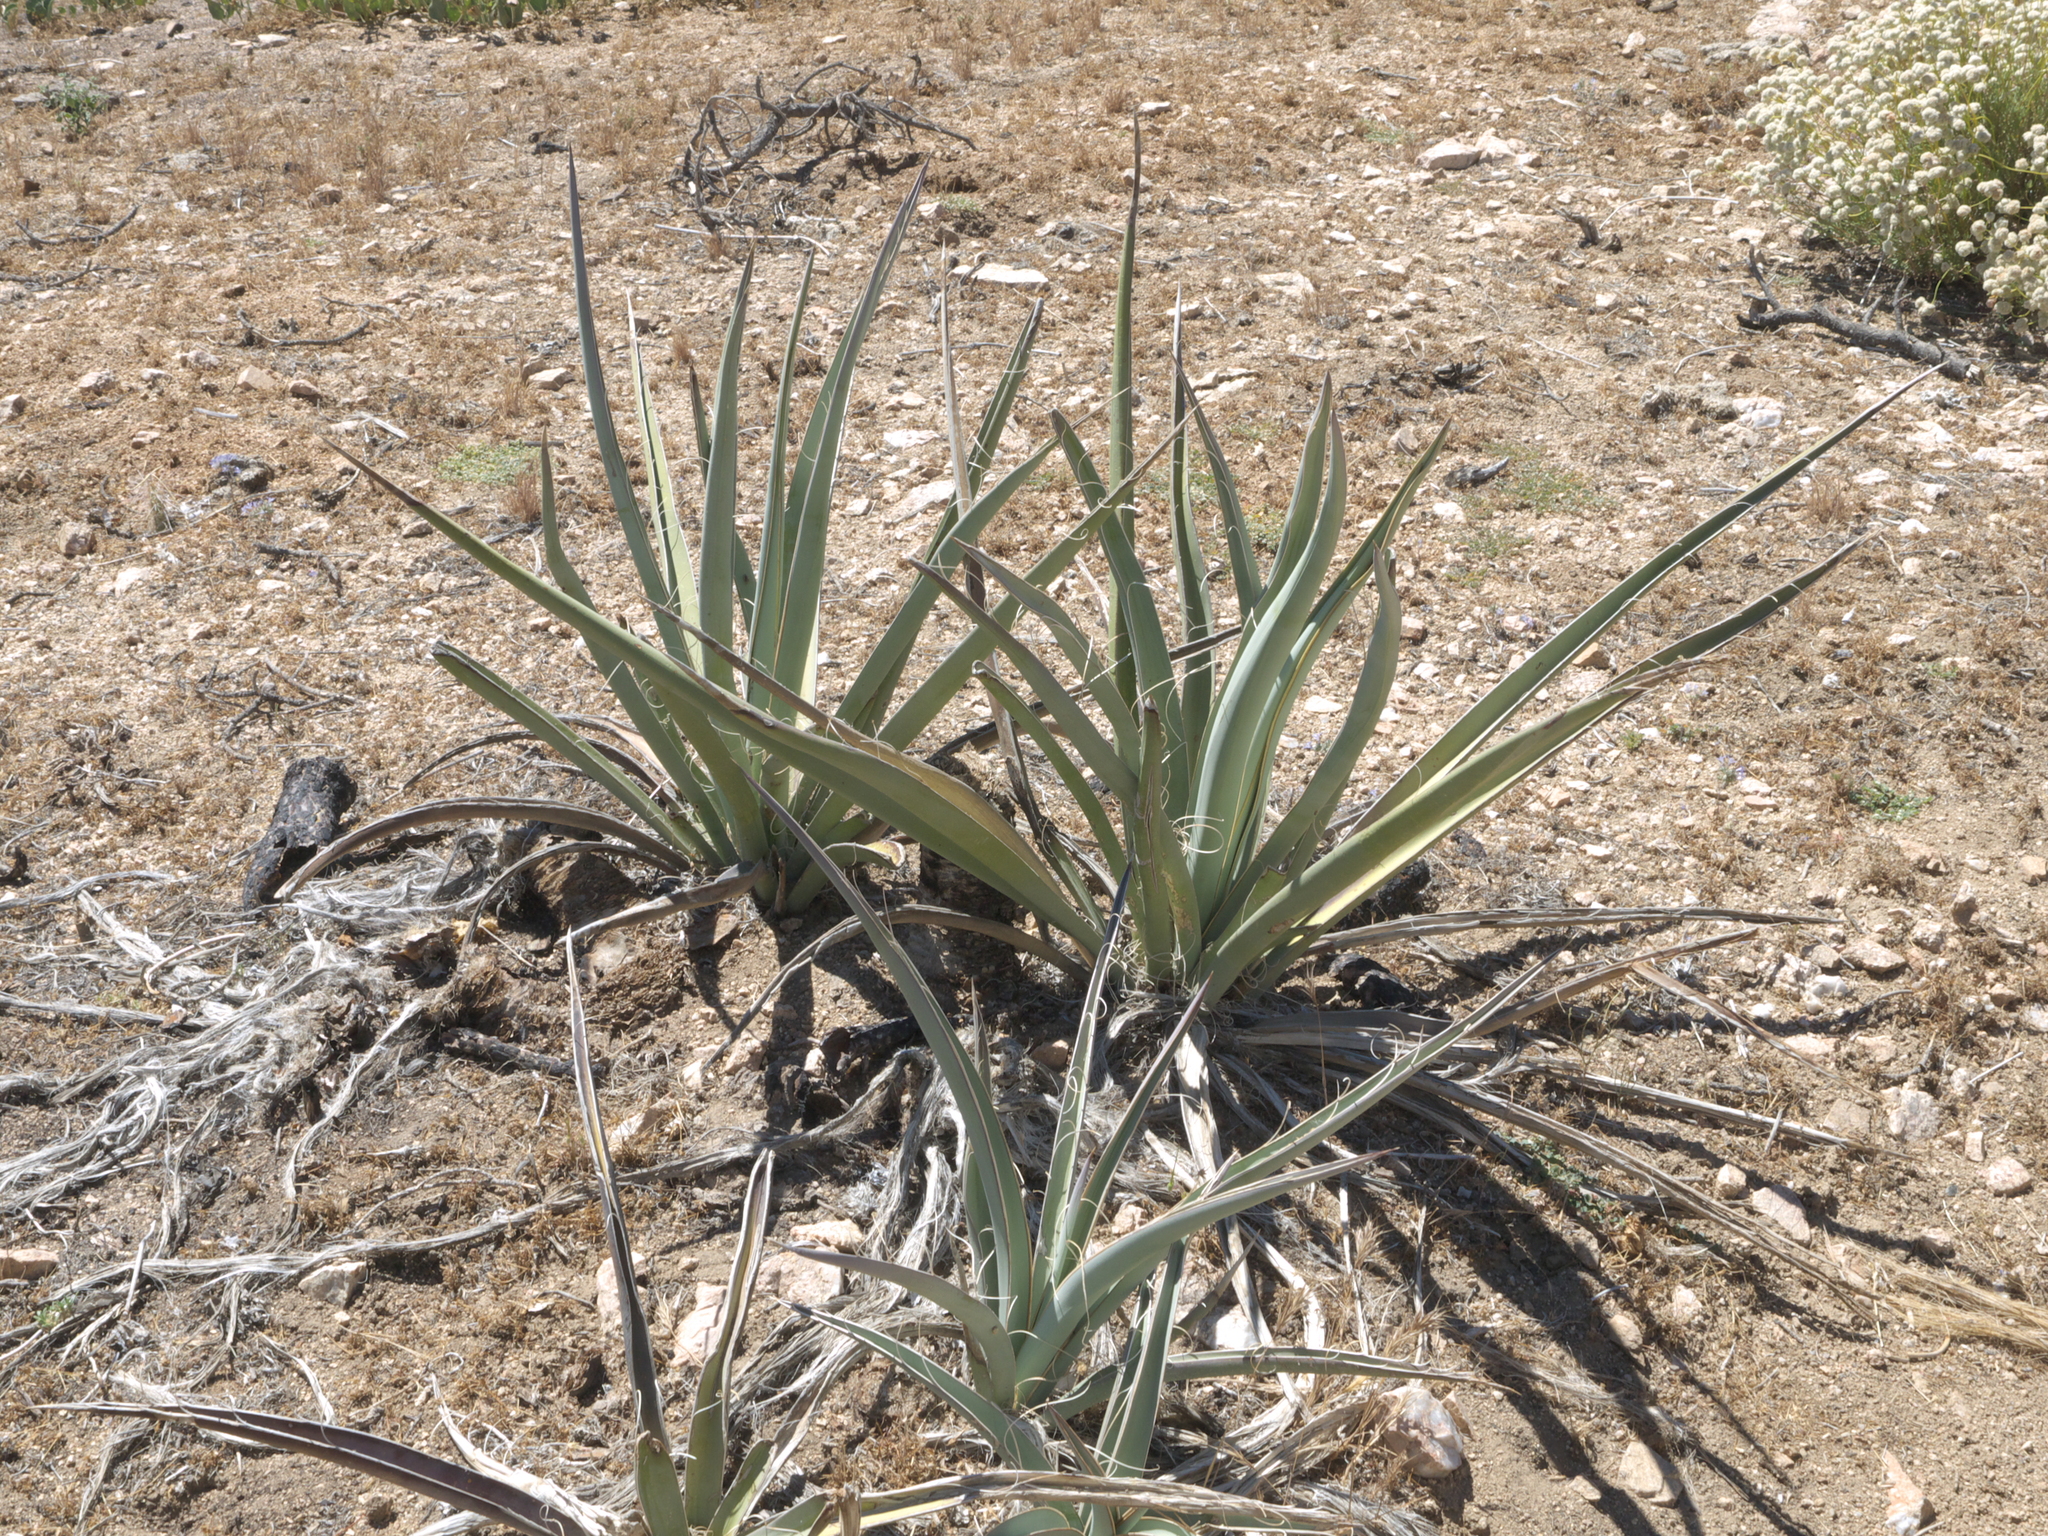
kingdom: Plantae
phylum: Tracheophyta
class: Liliopsida
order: Asparagales
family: Asparagaceae
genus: Yucca
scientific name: Yucca baccata
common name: Banana yucca
